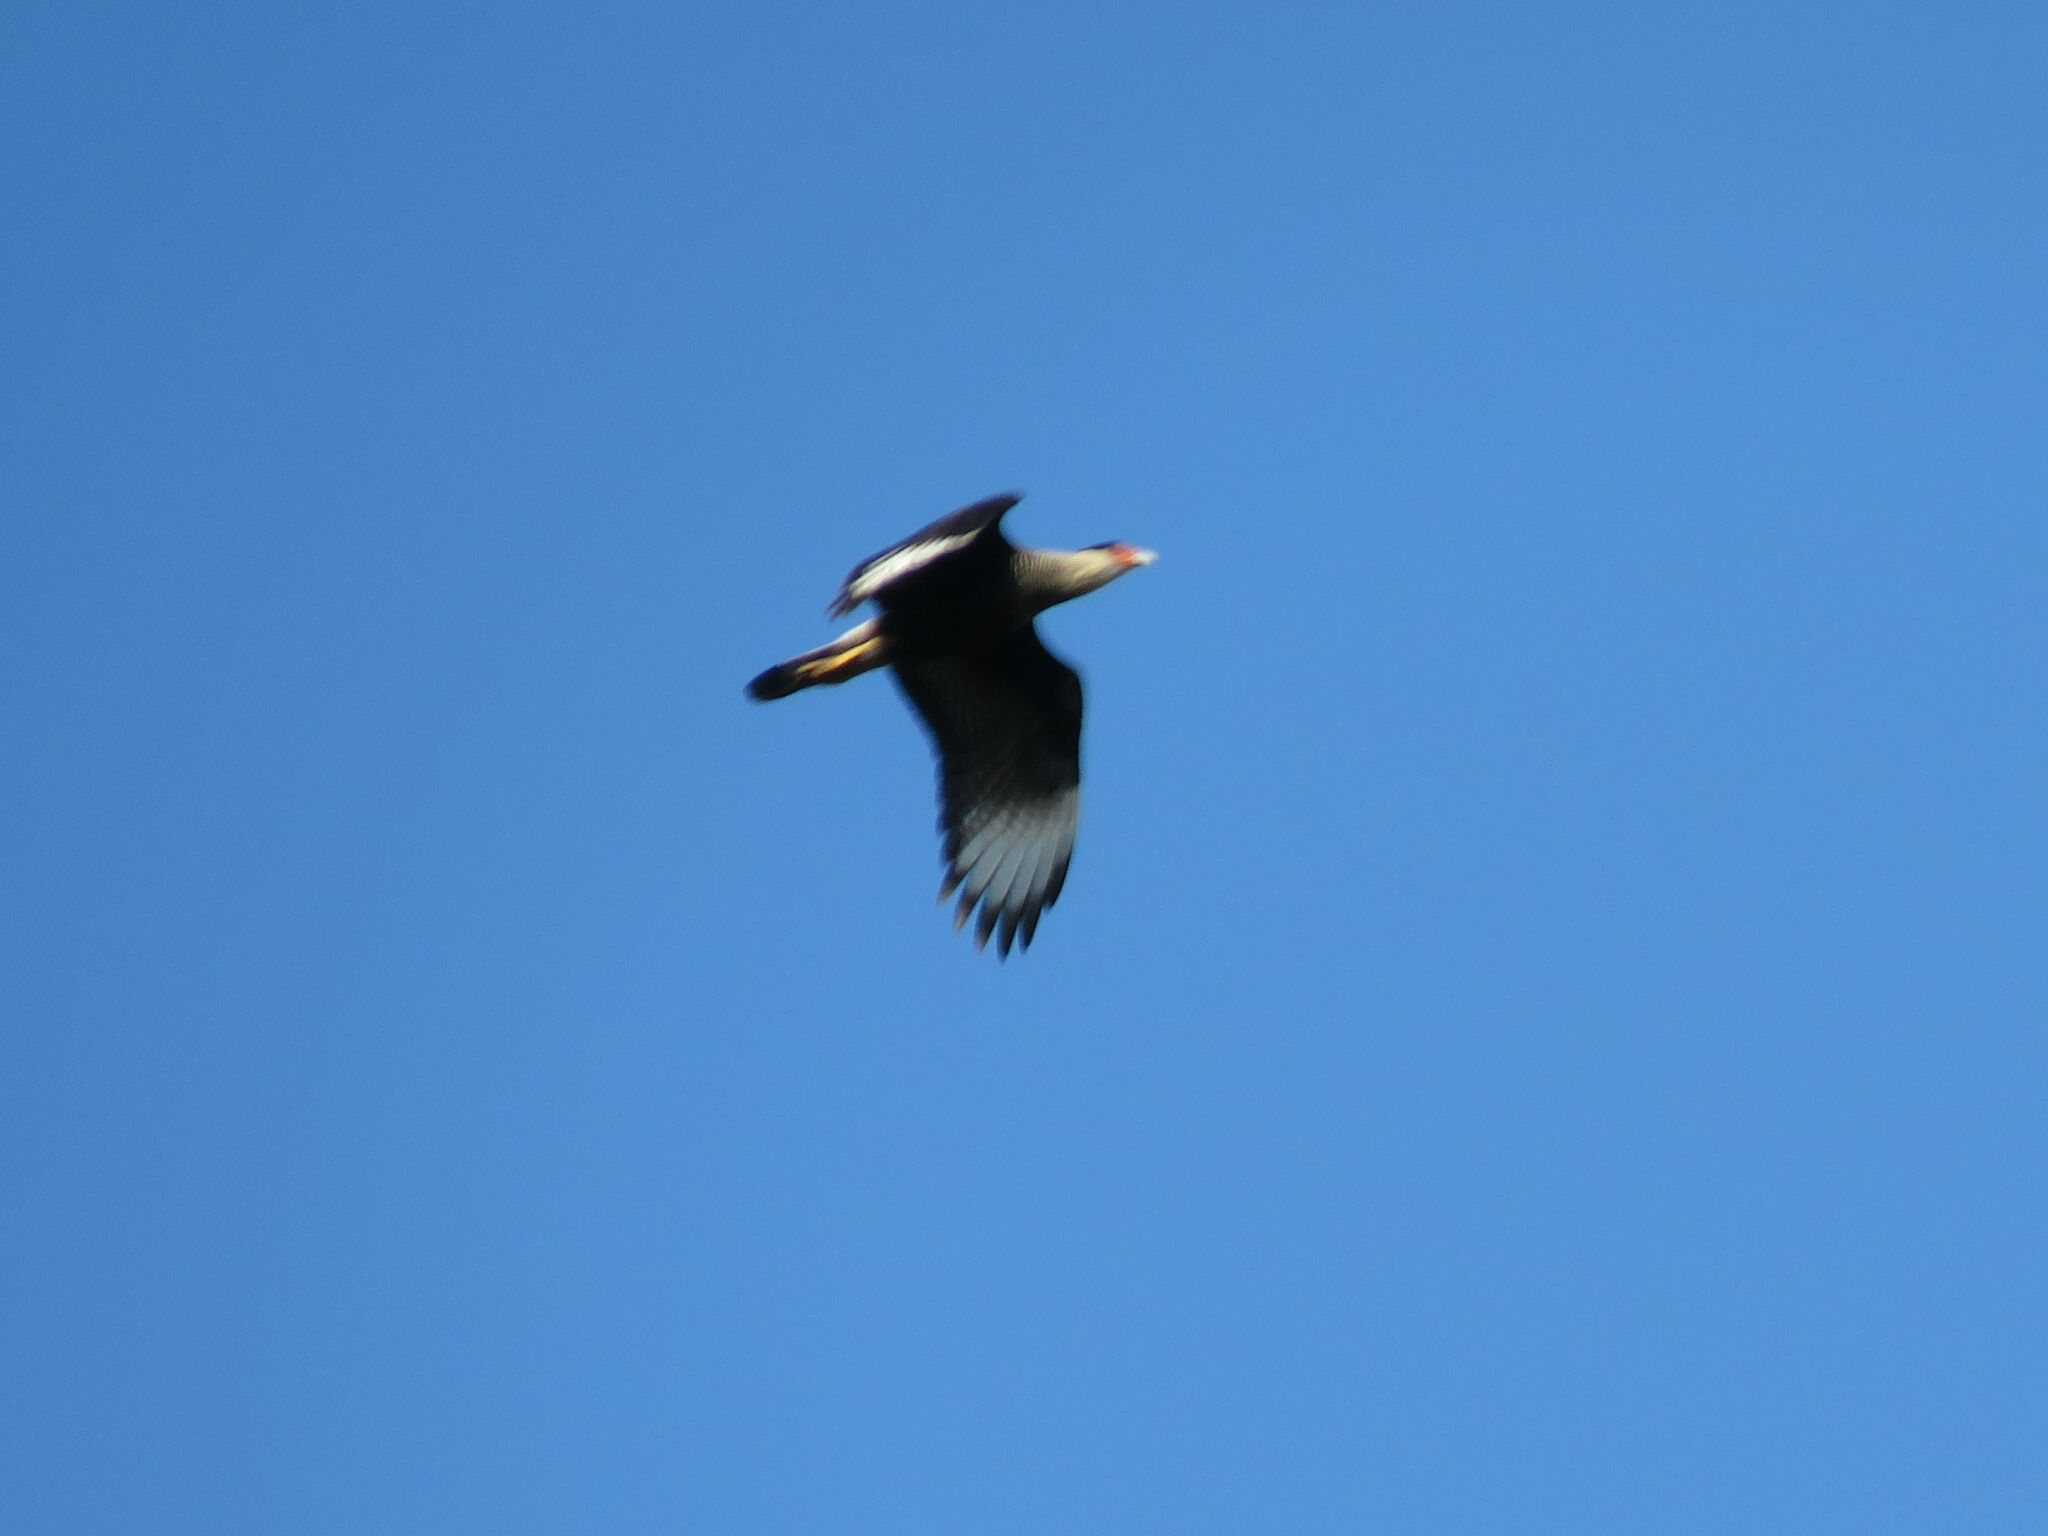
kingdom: Animalia
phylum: Chordata
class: Aves
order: Falconiformes
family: Falconidae
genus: Caracara
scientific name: Caracara plancus
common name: Southern caracara
